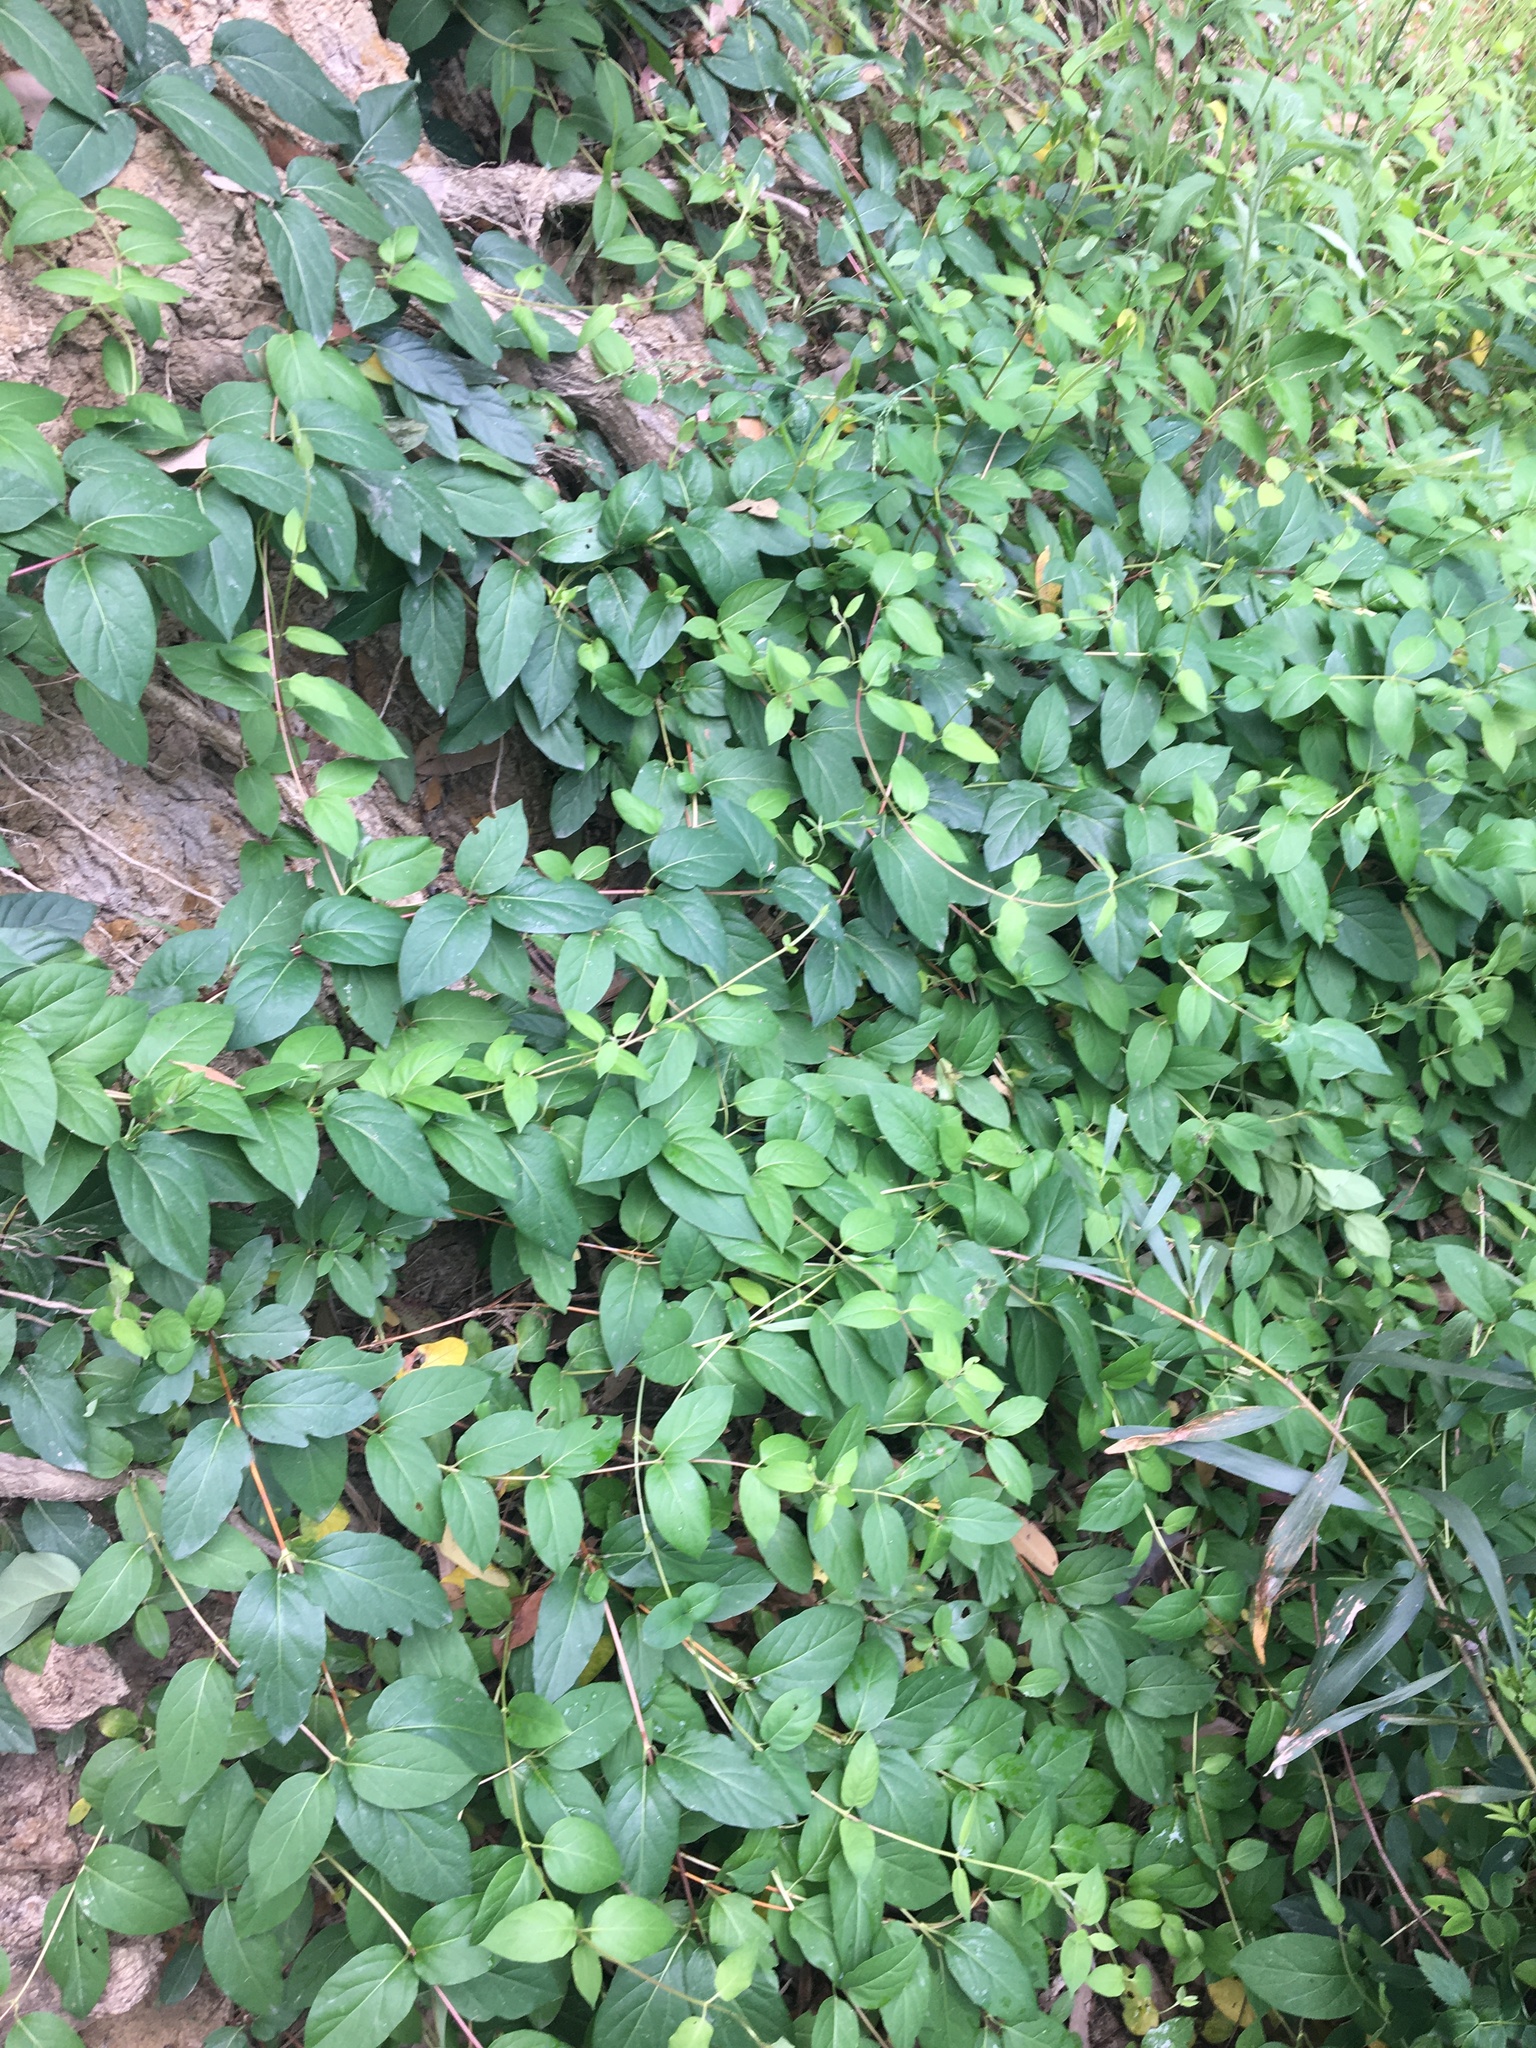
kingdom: Plantae
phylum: Tracheophyta
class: Magnoliopsida
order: Dipsacales
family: Caprifoliaceae
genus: Lonicera
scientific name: Lonicera japonica
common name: Japanese honeysuckle
